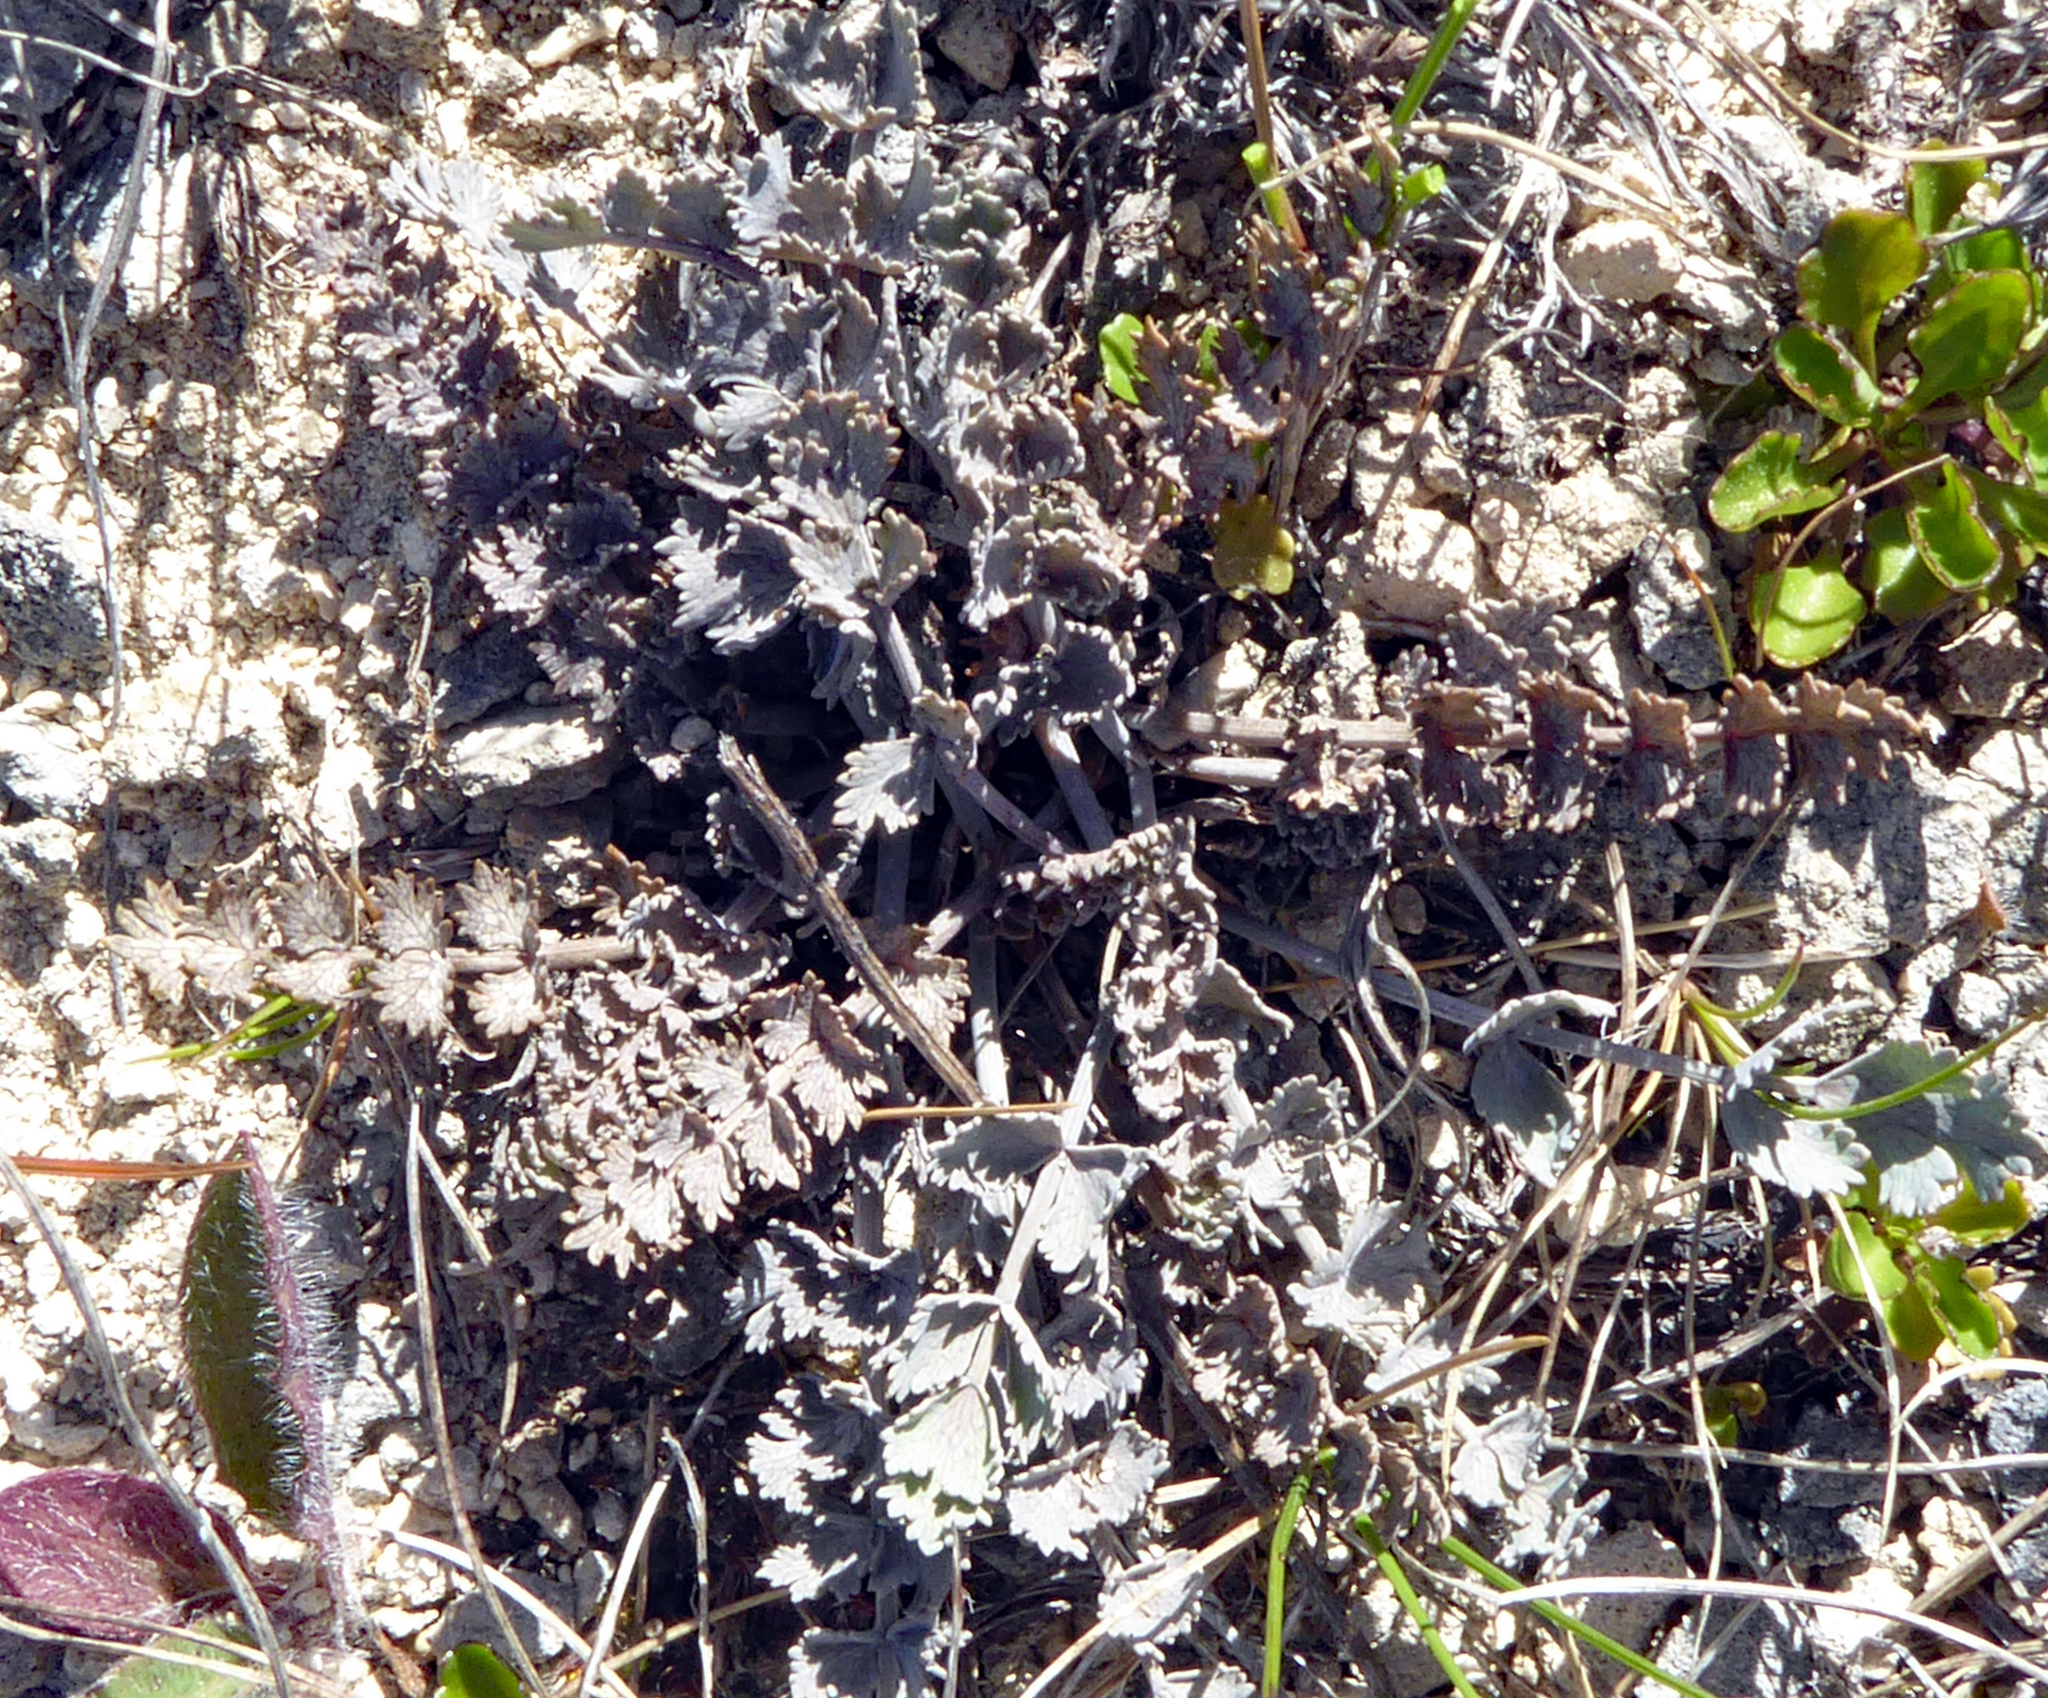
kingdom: Plantae
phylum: Tracheophyta
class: Magnoliopsida
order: Apiales
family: Apiaceae
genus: Gingidia
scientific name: Gingidia enysii
